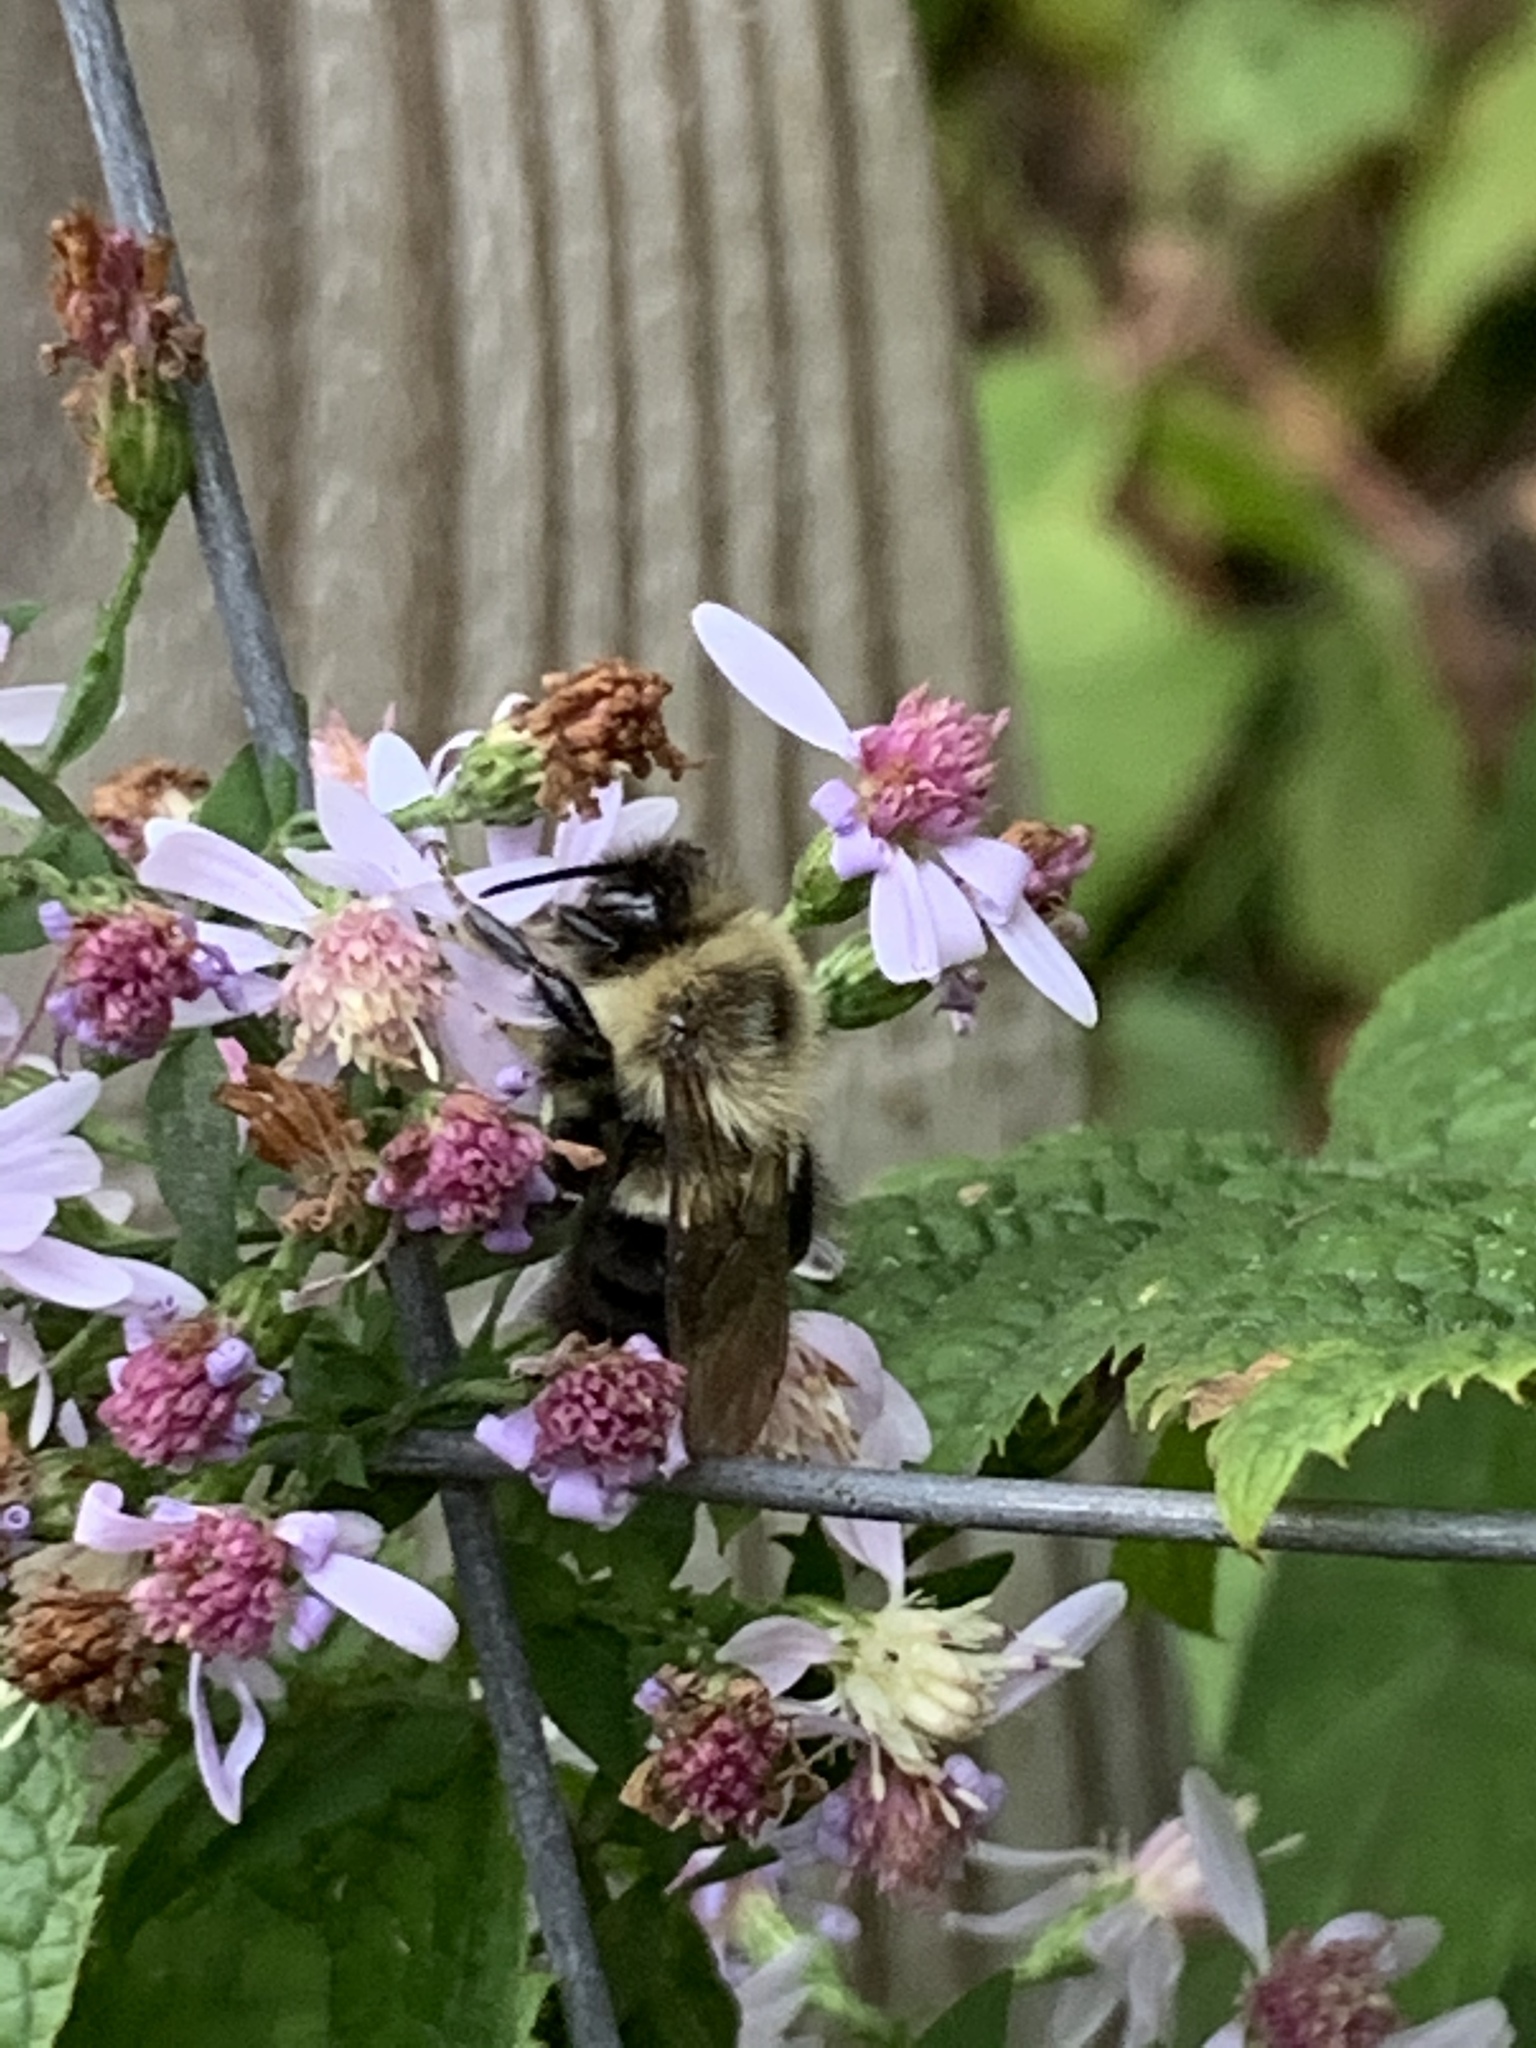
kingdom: Animalia
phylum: Arthropoda
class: Insecta
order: Hymenoptera
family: Apidae
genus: Bombus
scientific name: Bombus impatiens
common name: Common eastern bumble bee
